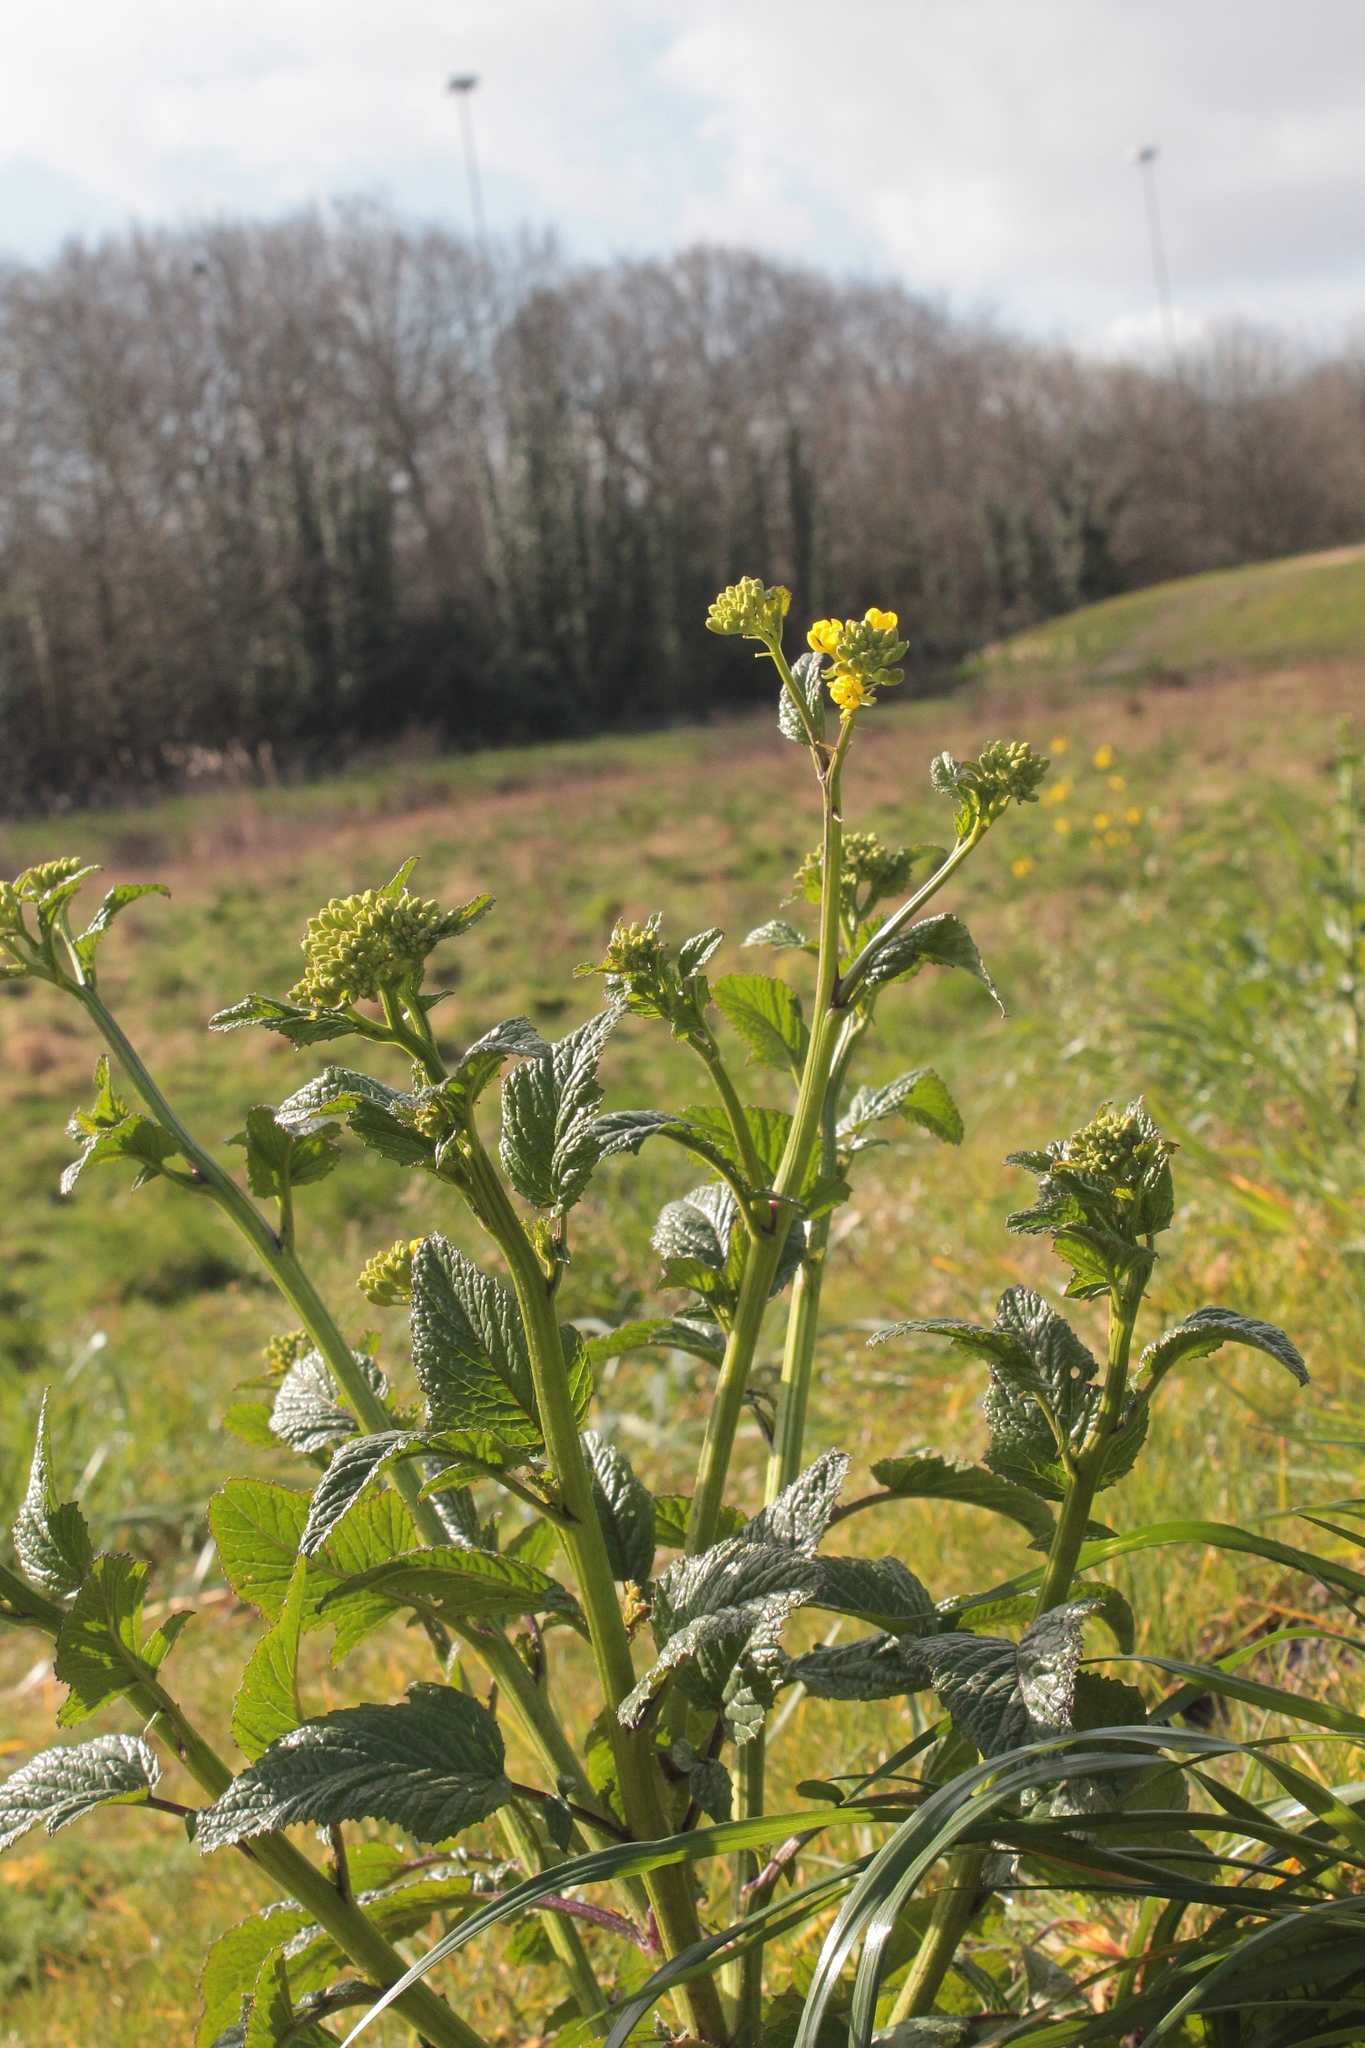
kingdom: Plantae
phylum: Tracheophyta
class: Magnoliopsida
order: Brassicales
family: Brassicaceae
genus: Sinapis
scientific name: Sinapis arvensis
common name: Charlock
